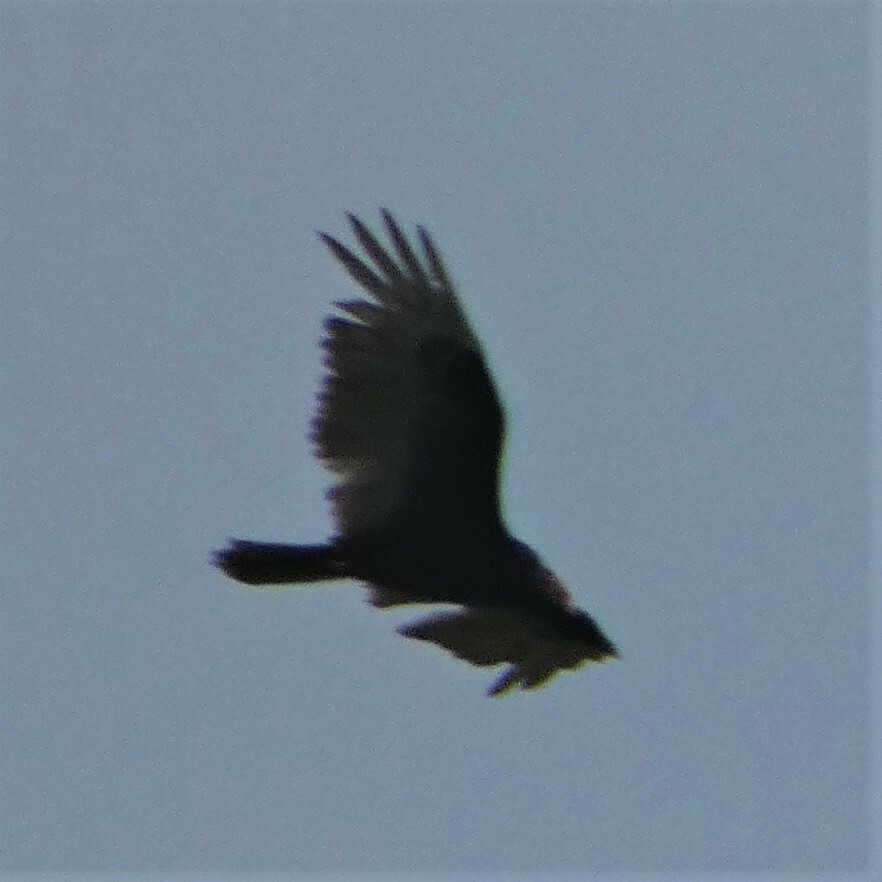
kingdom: Animalia
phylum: Chordata
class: Aves
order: Accipitriformes
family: Cathartidae
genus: Cathartes
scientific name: Cathartes aura
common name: Turkey vulture
